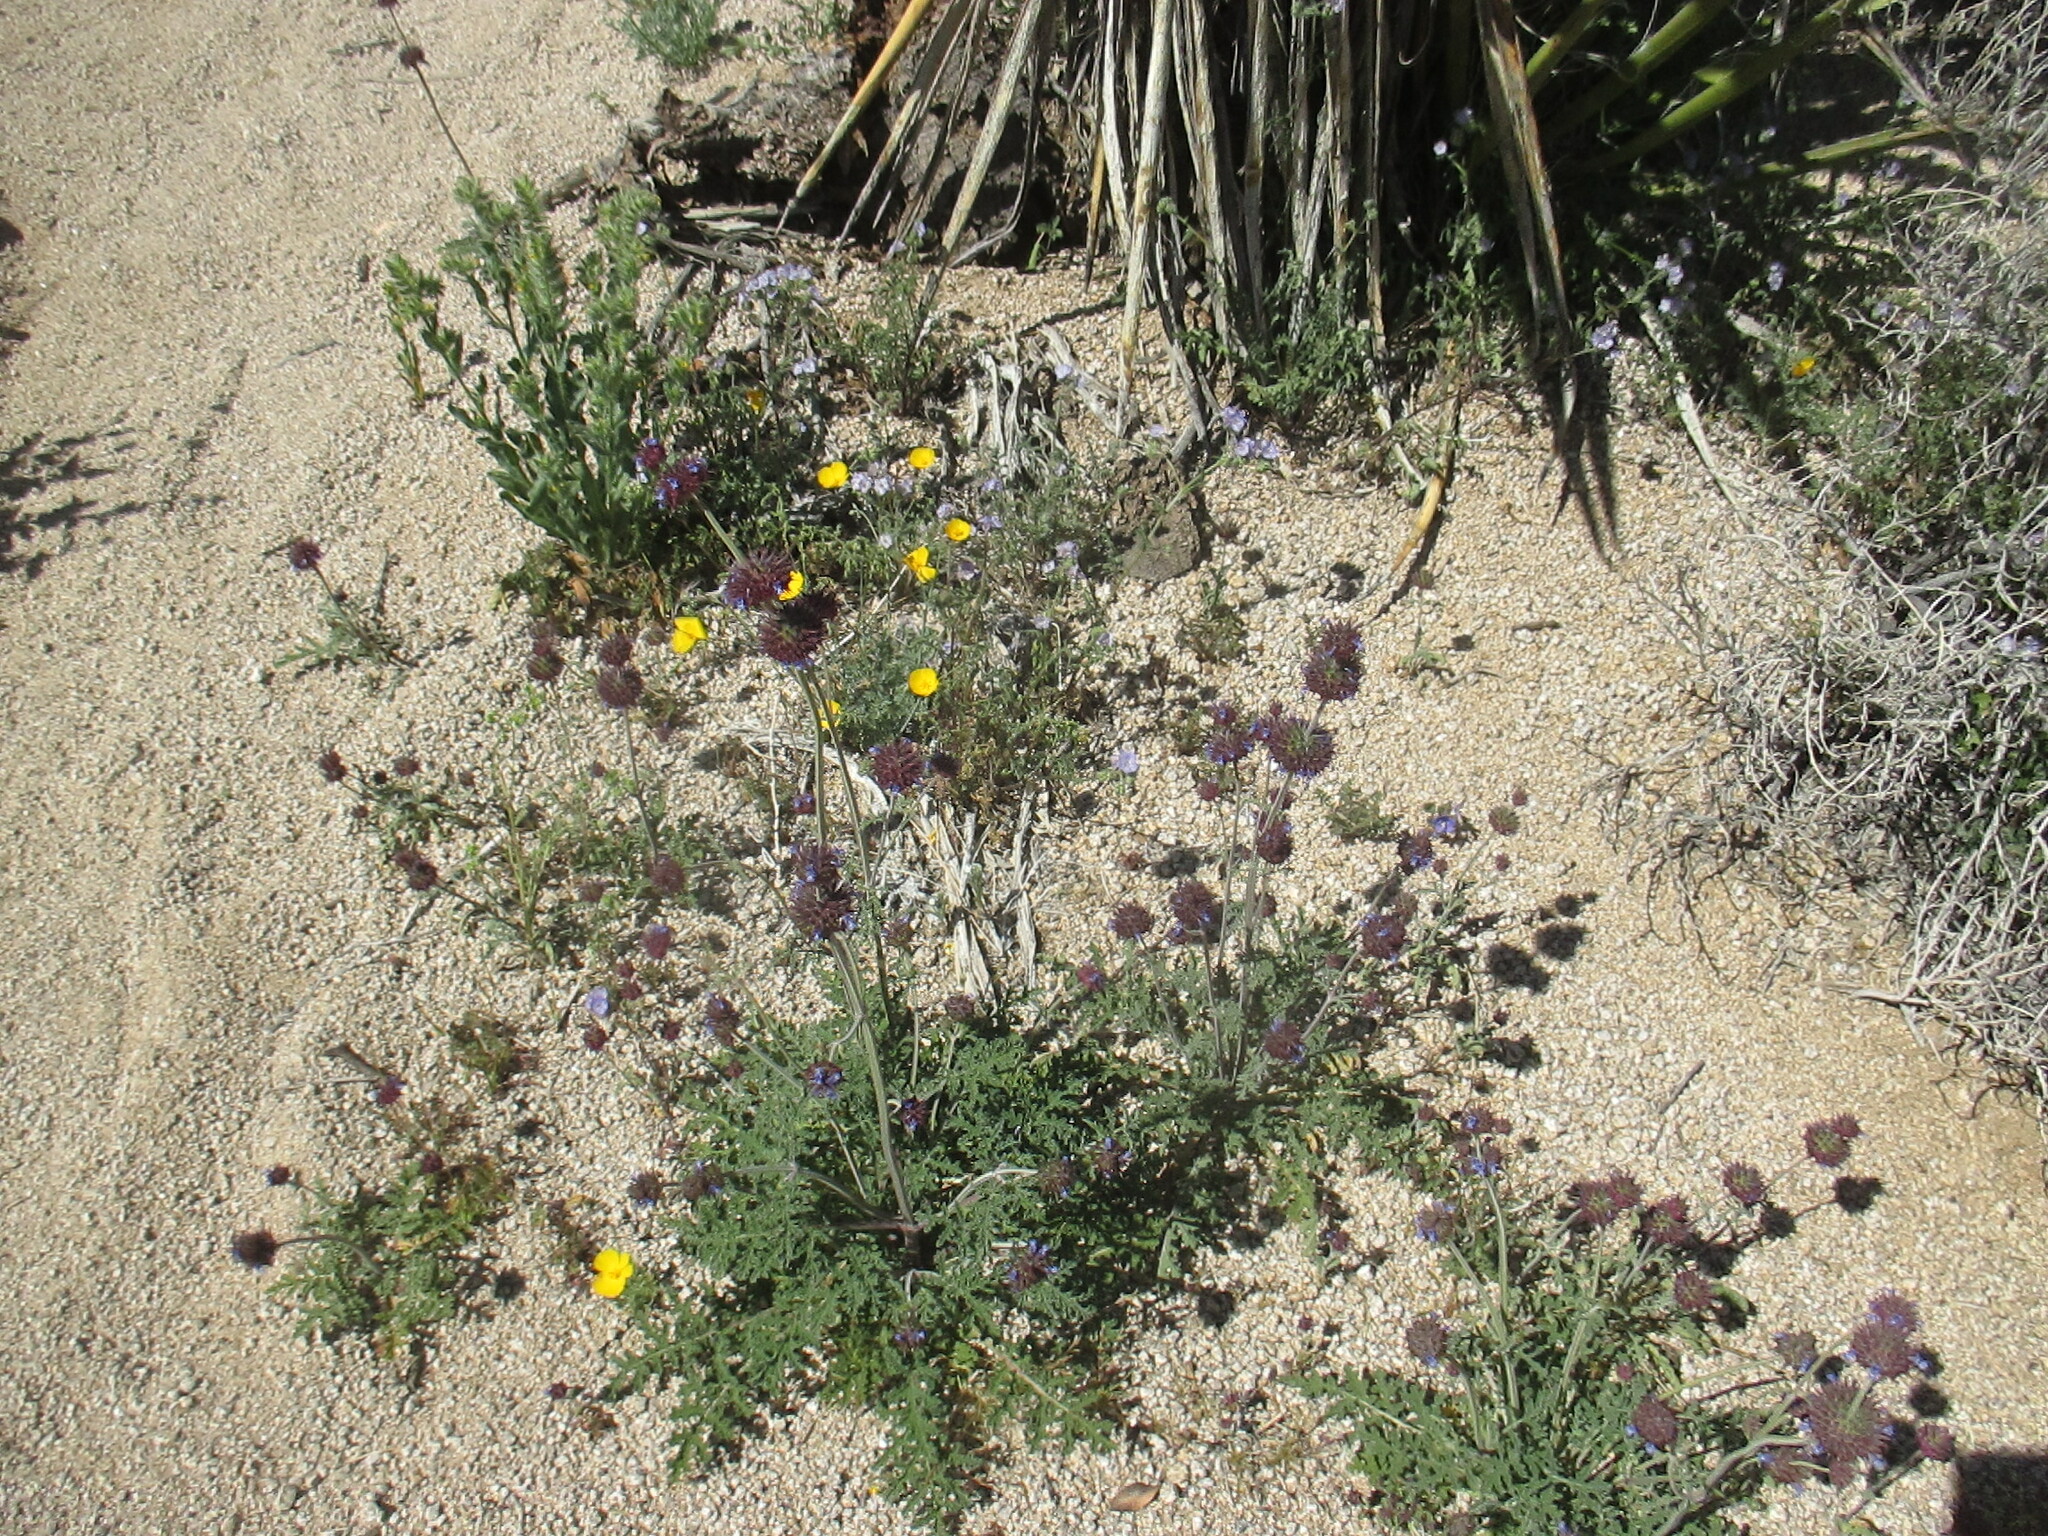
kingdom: Plantae
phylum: Tracheophyta
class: Magnoliopsida
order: Lamiales
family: Lamiaceae
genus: Salvia
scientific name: Salvia columbariae
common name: Chia
